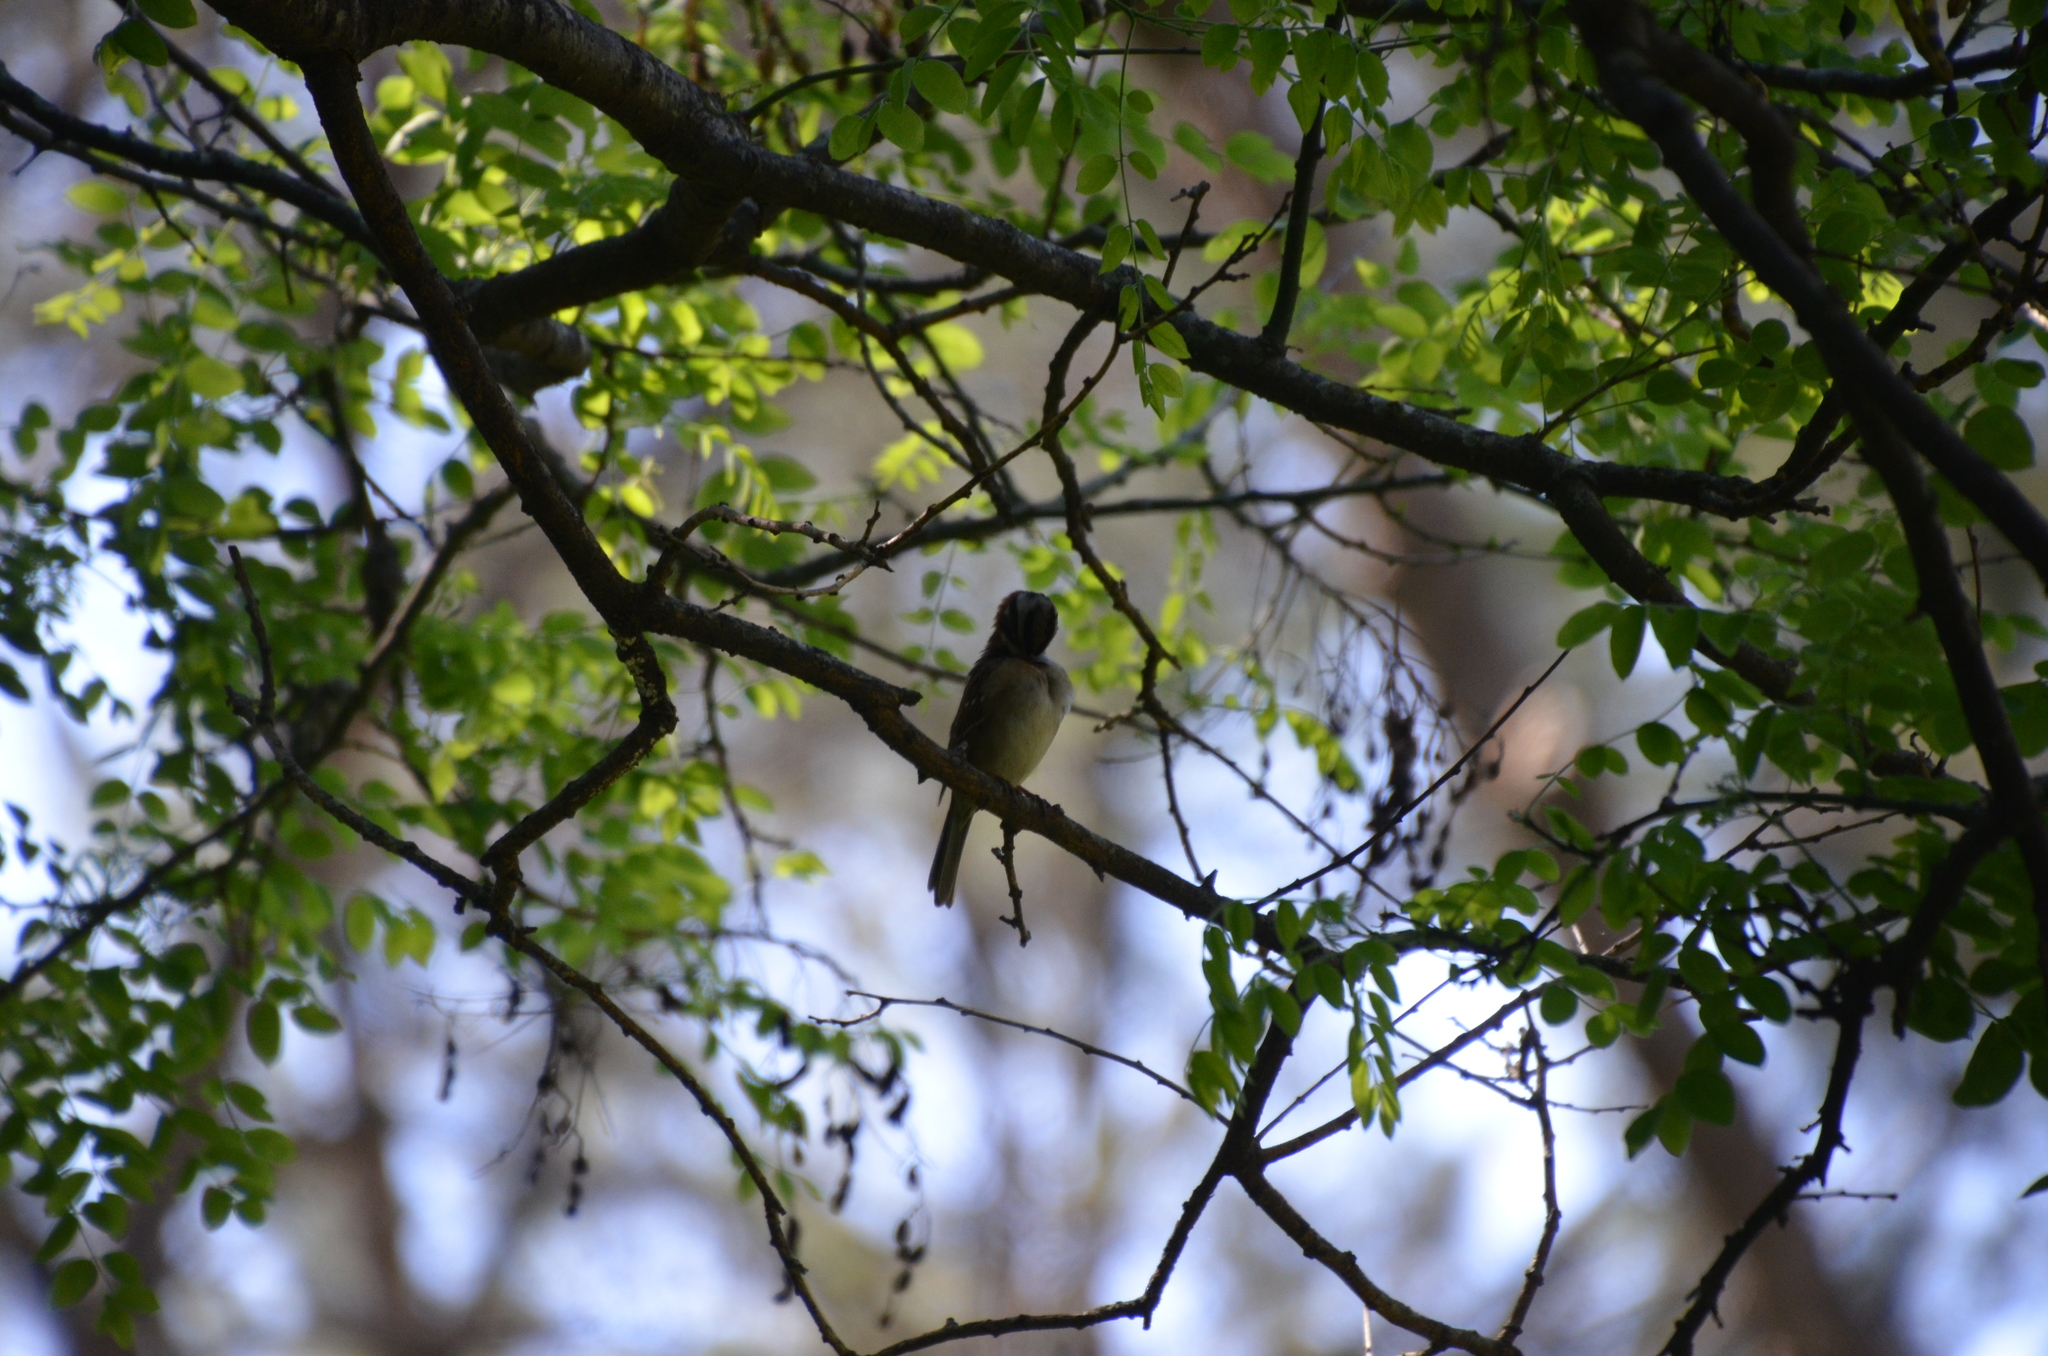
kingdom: Plantae
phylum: Tracheophyta
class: Magnoliopsida
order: Fabales
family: Fabaceae
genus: Gleditsia
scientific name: Gleditsia triacanthos
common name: Common honeylocust
